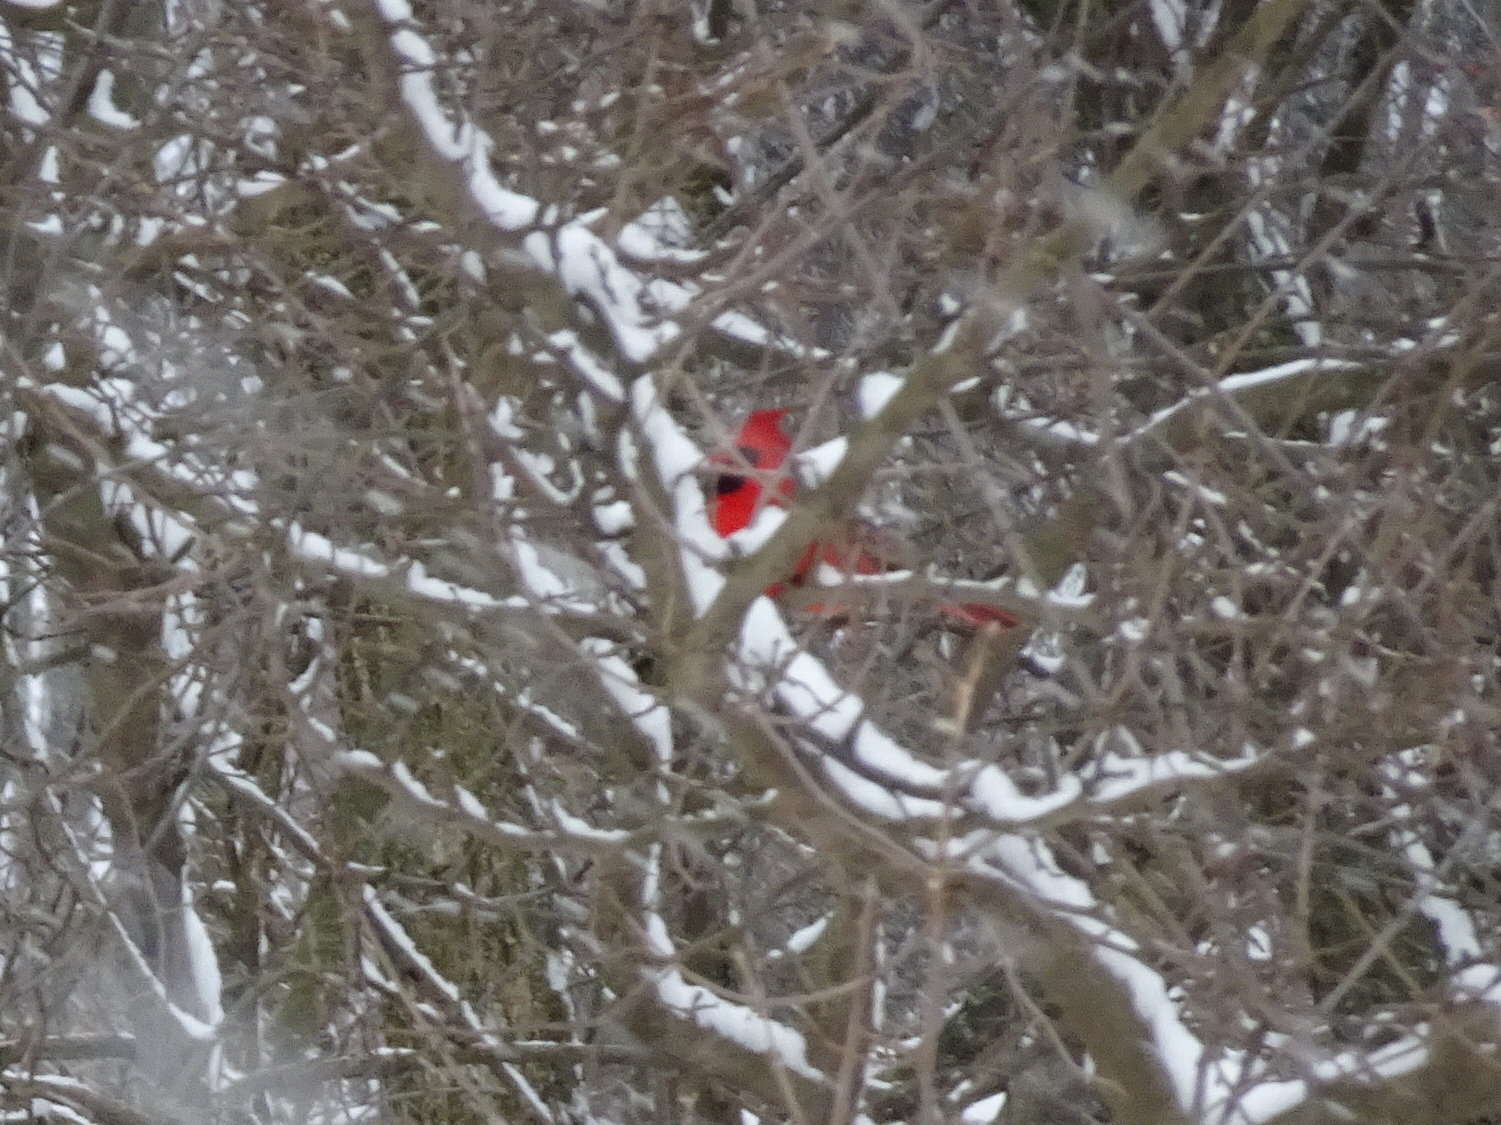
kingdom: Animalia
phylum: Chordata
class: Aves
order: Passeriformes
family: Cardinalidae
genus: Cardinalis
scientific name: Cardinalis cardinalis
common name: Northern cardinal
